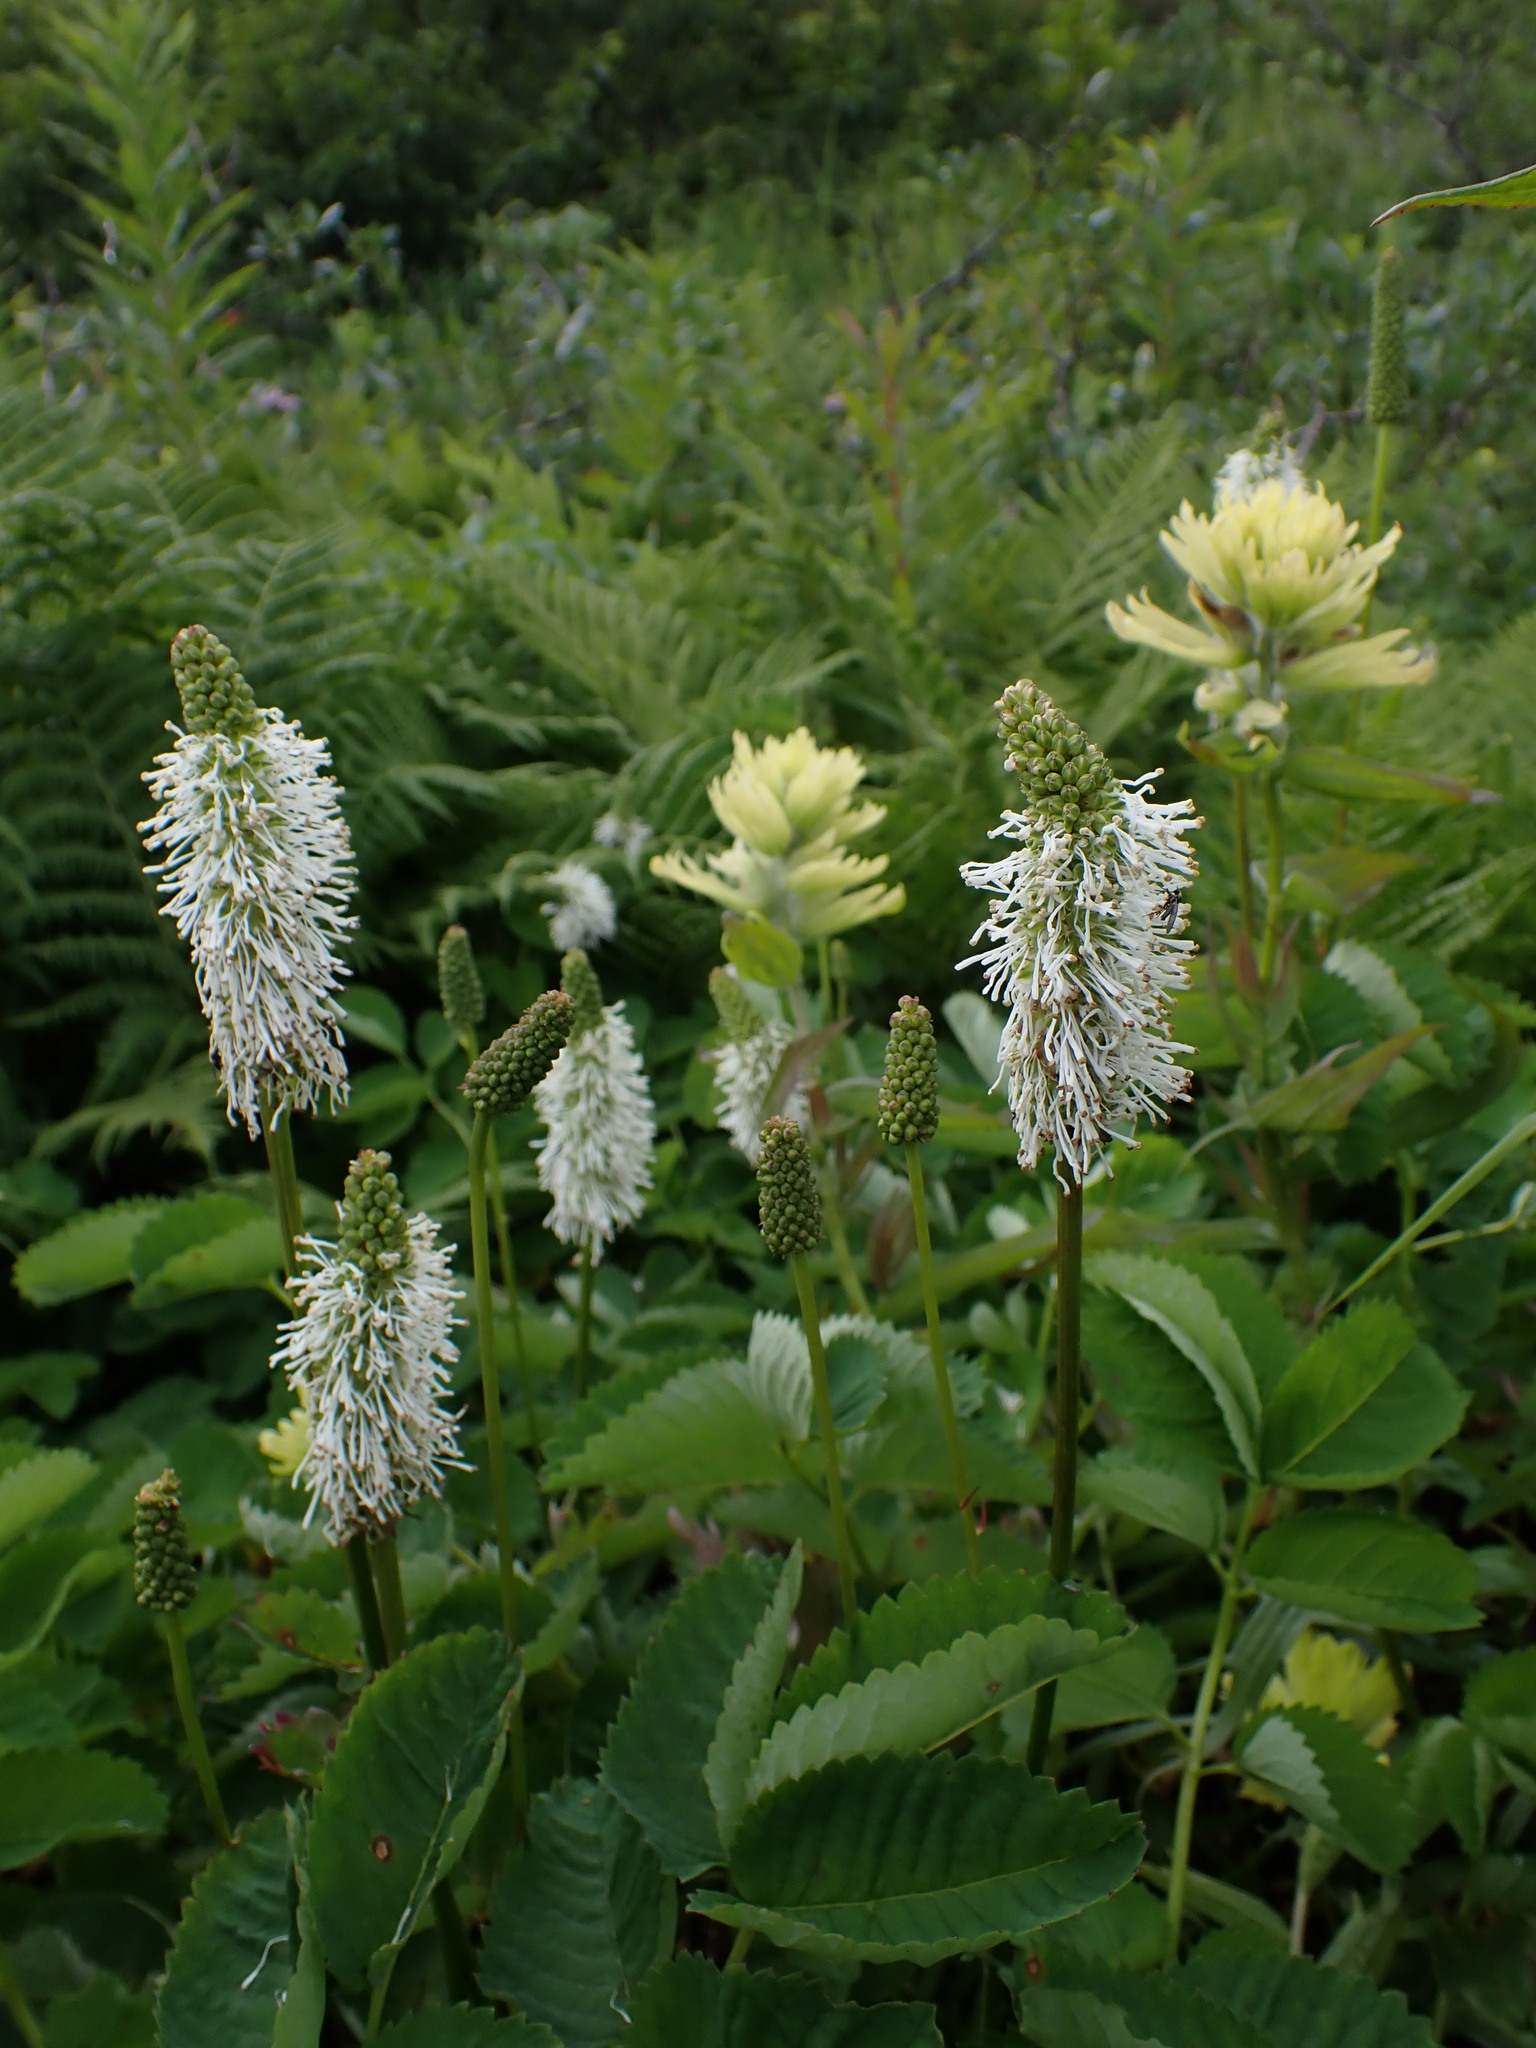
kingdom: Plantae
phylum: Tracheophyta
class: Magnoliopsida
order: Rosales
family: Rosaceae
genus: Sanguisorba
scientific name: Sanguisorba stipulata
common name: Sitka burnet
